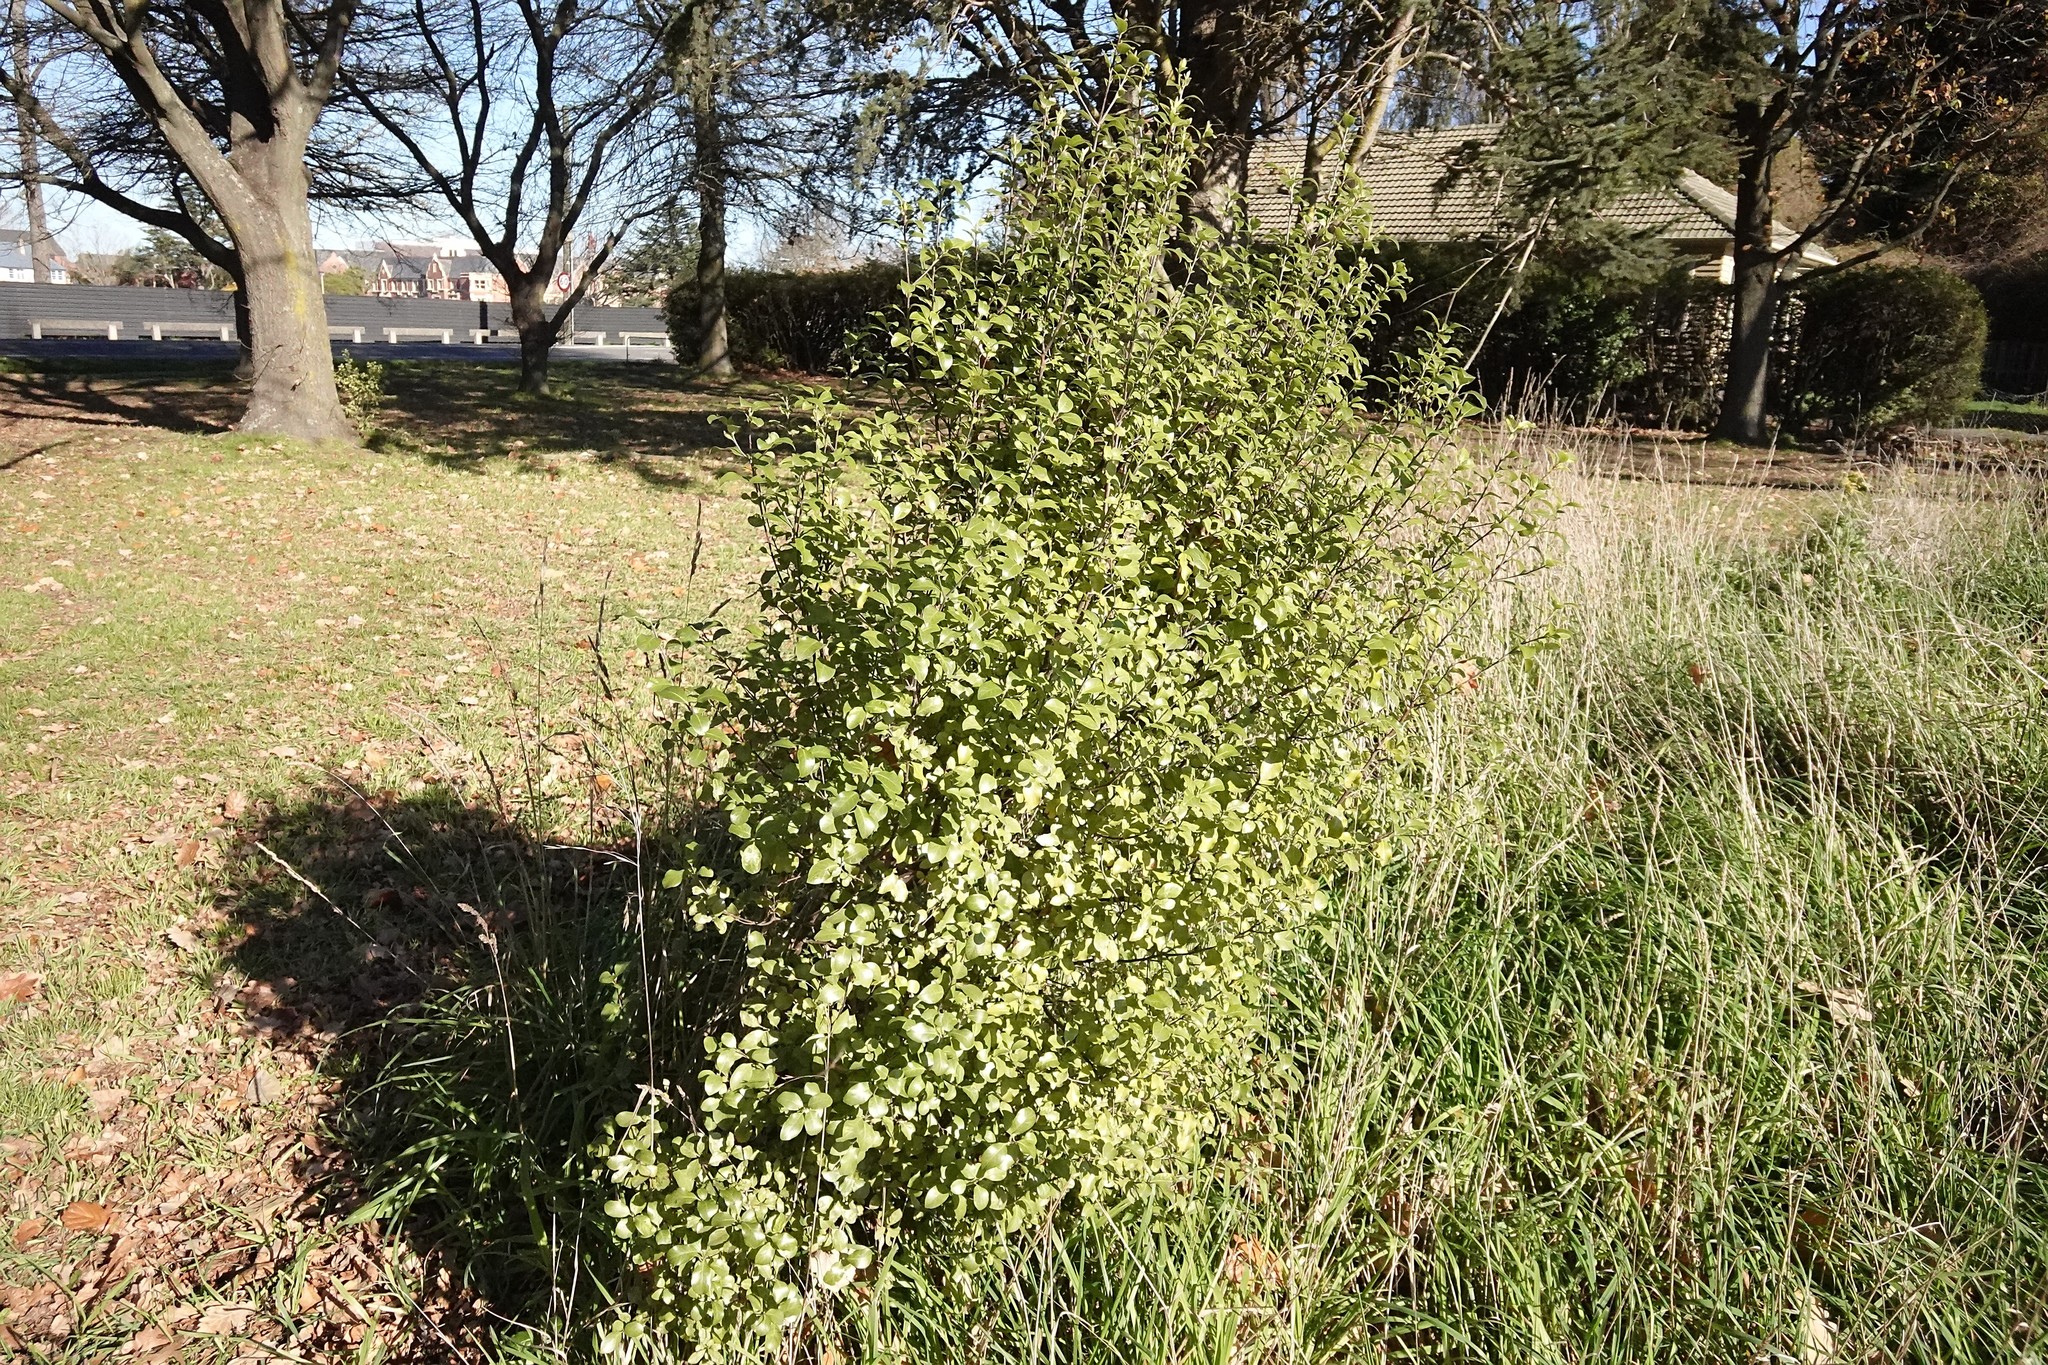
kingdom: Plantae
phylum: Tracheophyta
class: Magnoliopsida
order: Apiales
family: Pittosporaceae
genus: Pittosporum
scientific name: Pittosporum tenuifolium
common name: Kohuhu
